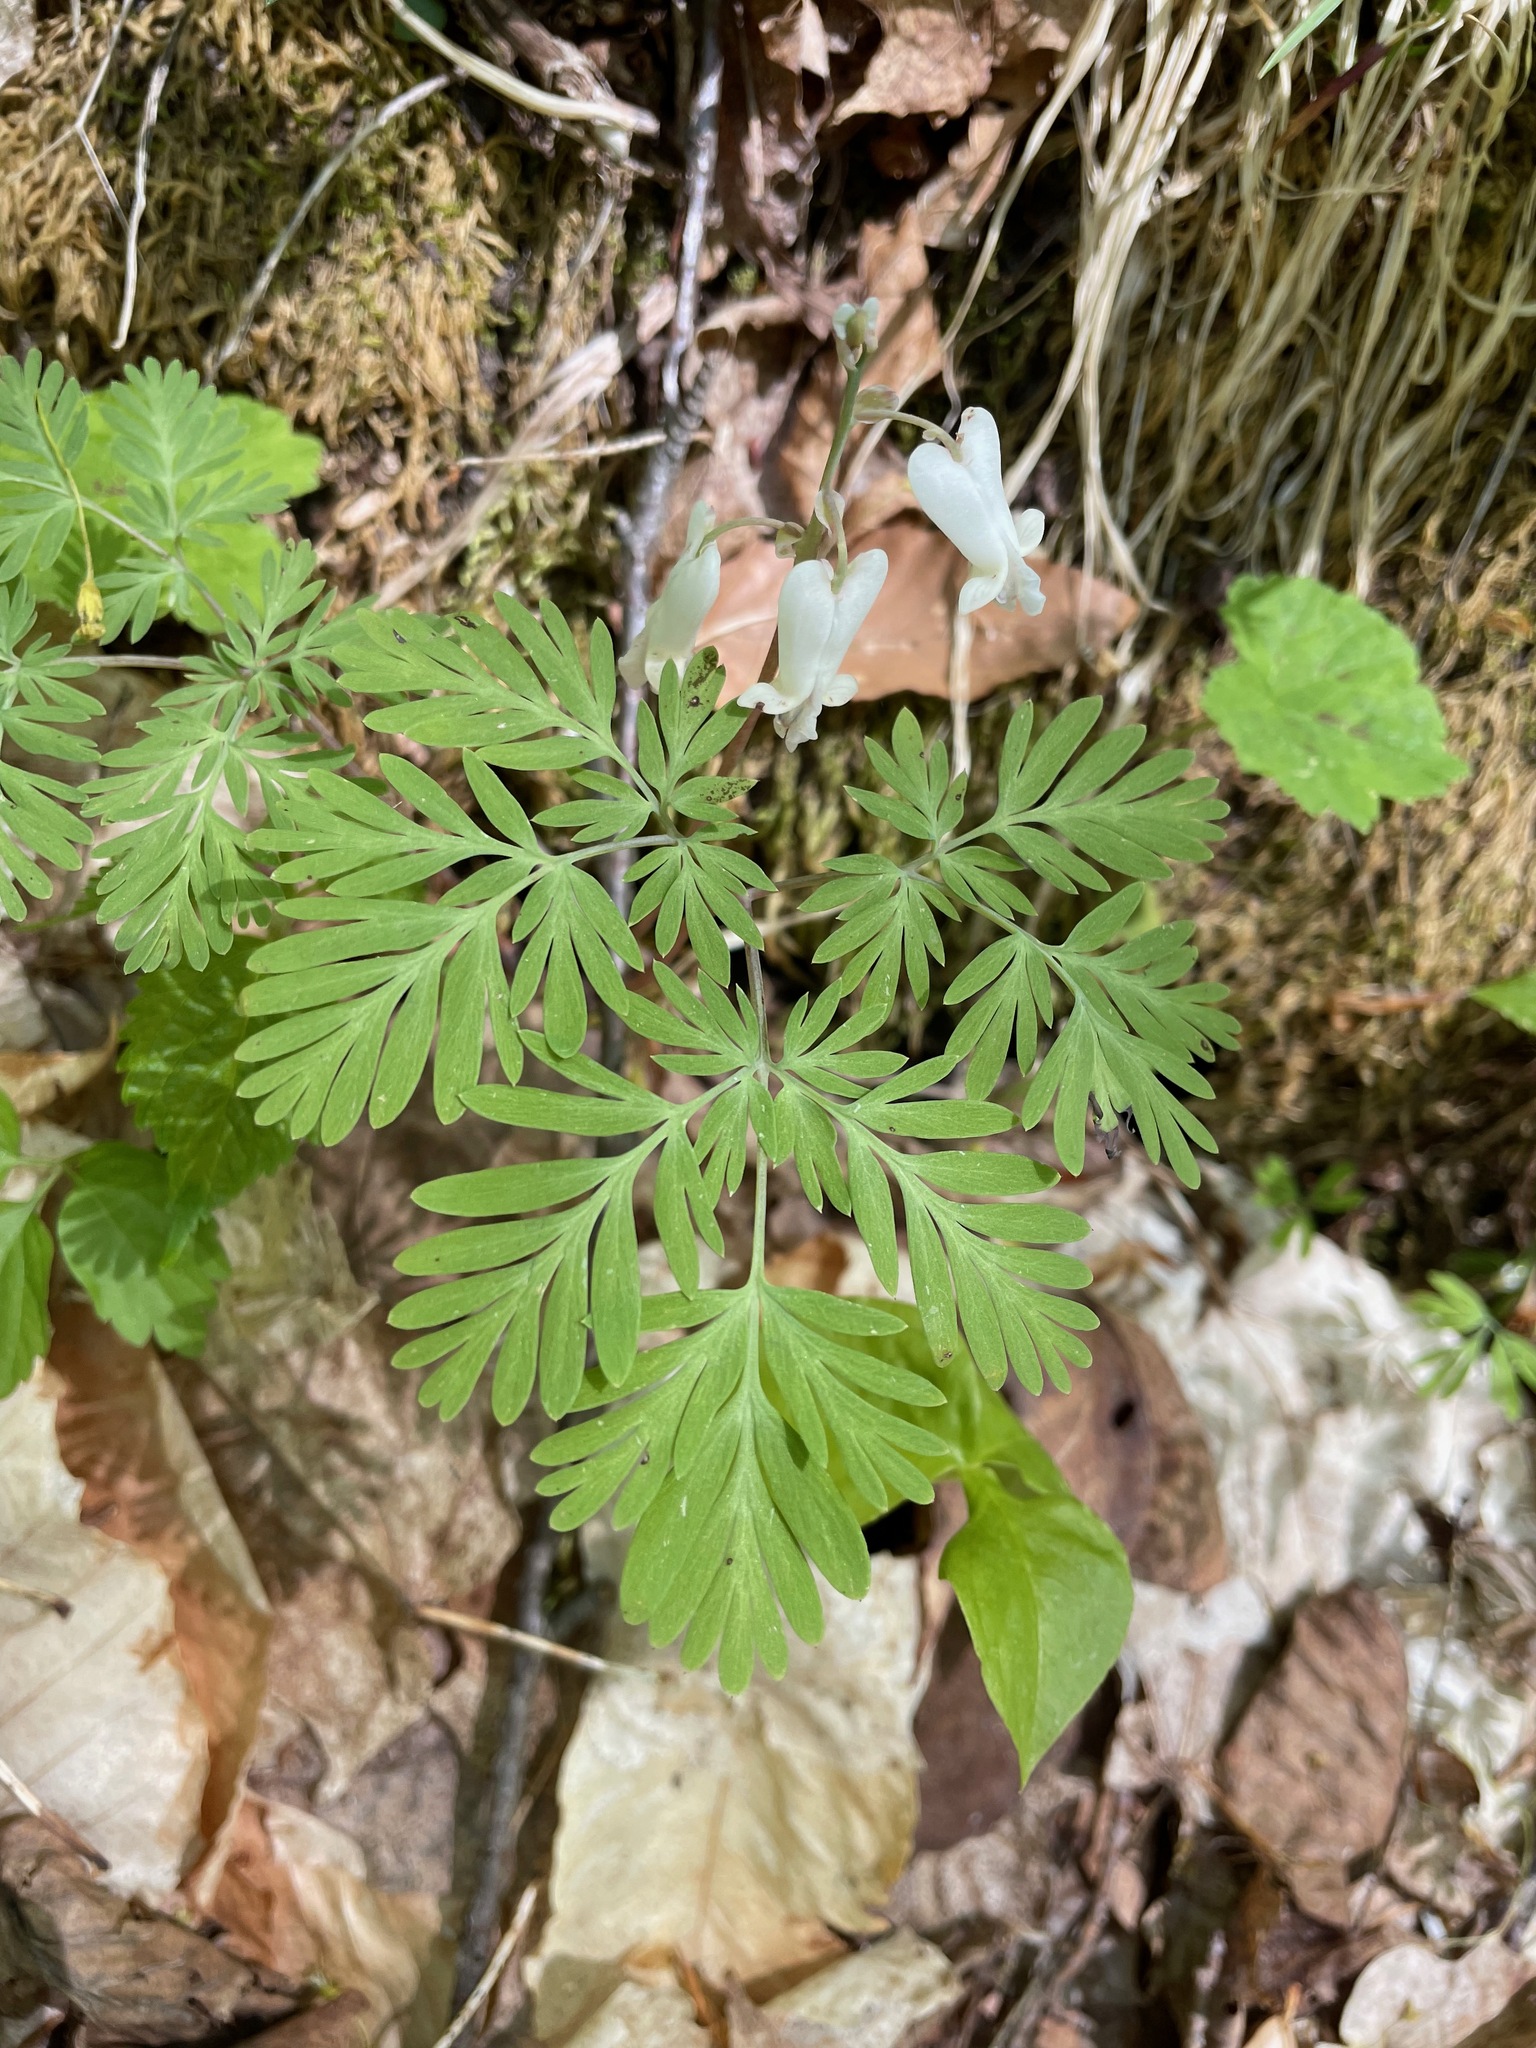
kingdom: Plantae
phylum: Tracheophyta
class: Magnoliopsida
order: Ranunculales
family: Papaveraceae
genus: Dicentra
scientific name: Dicentra canadensis
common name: Squirrel-corn
